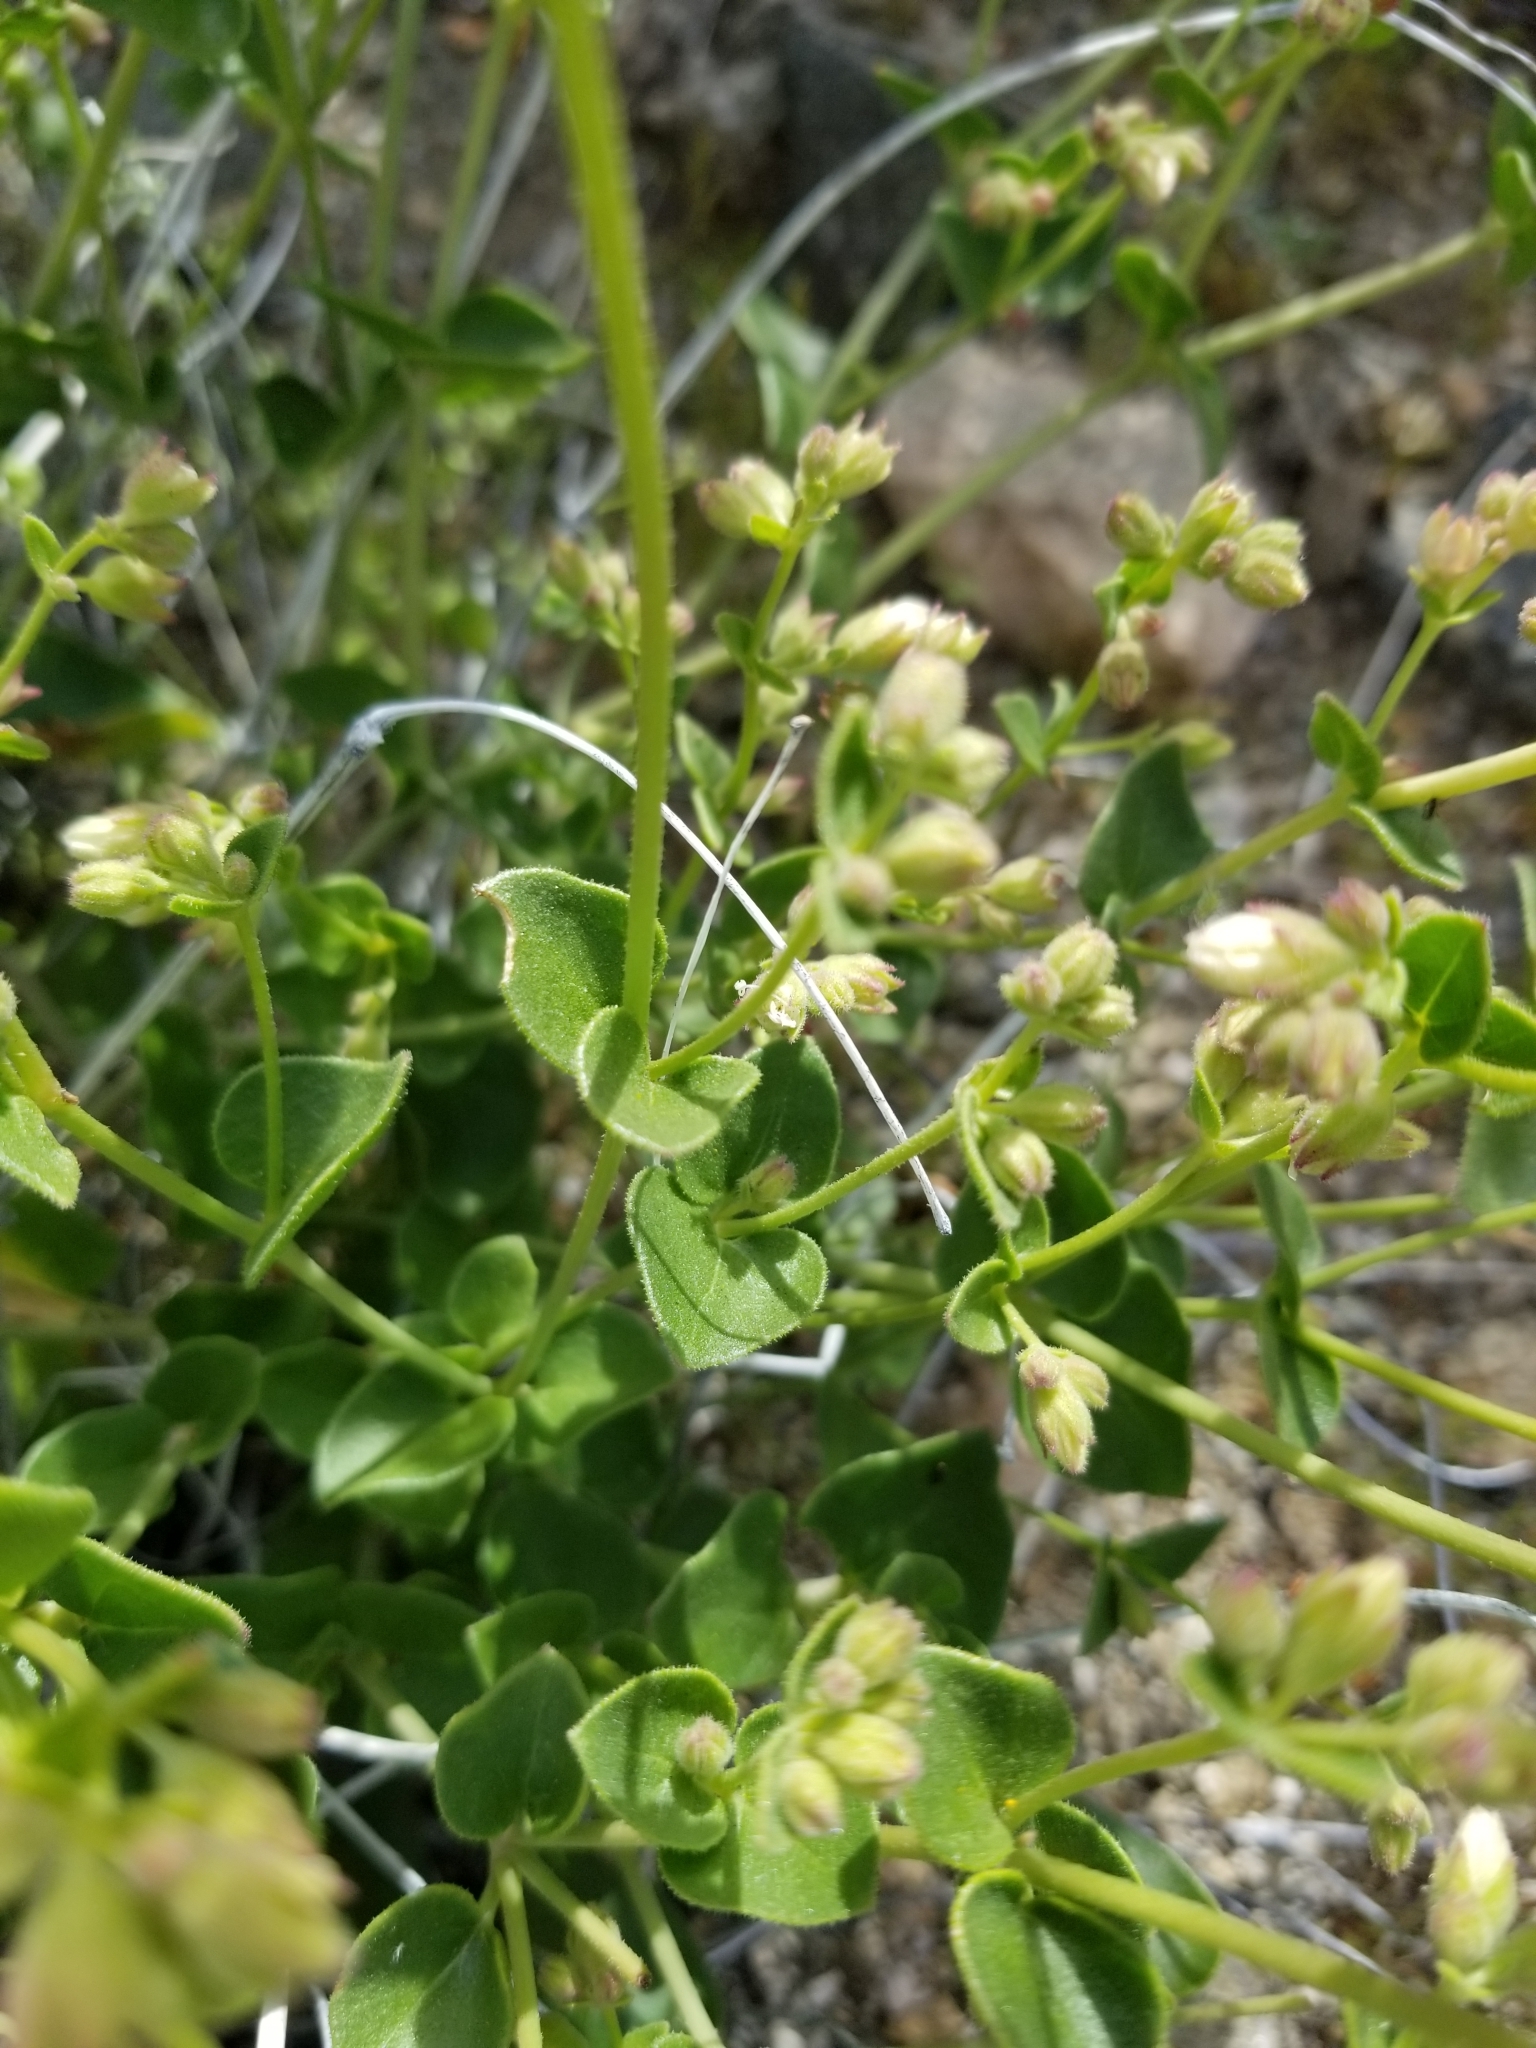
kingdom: Plantae
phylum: Tracheophyta
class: Magnoliopsida
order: Caryophyllales
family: Nyctaginaceae
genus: Mirabilis
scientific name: Mirabilis laevis
